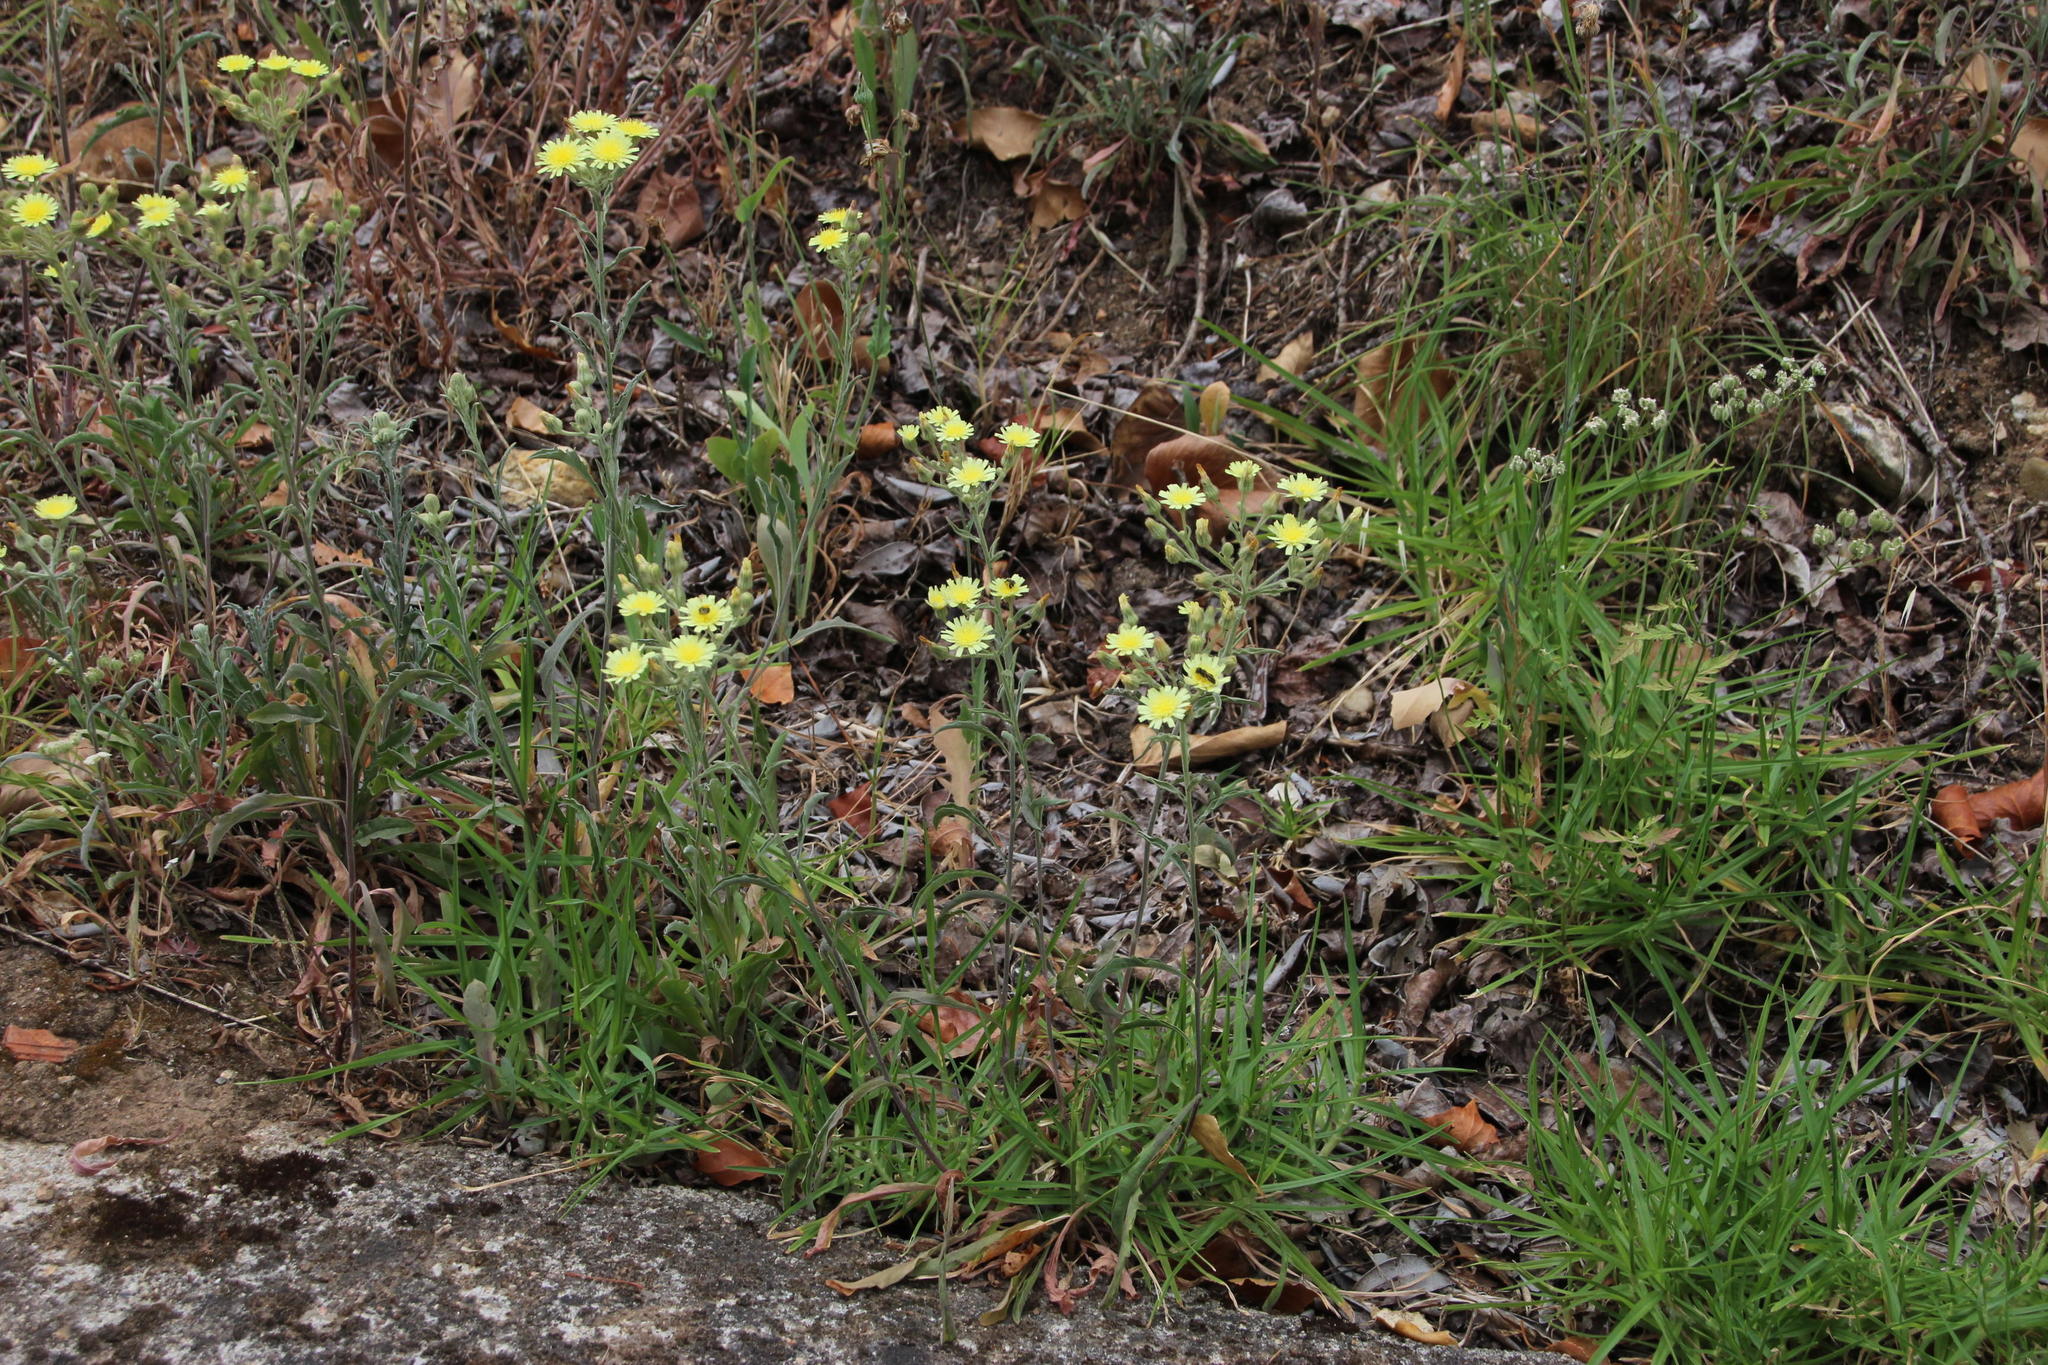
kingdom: Plantae
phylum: Tracheophyta
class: Magnoliopsida
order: Asterales
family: Asteraceae
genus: Andryala
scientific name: Andryala integrifolia
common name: Common andryala
